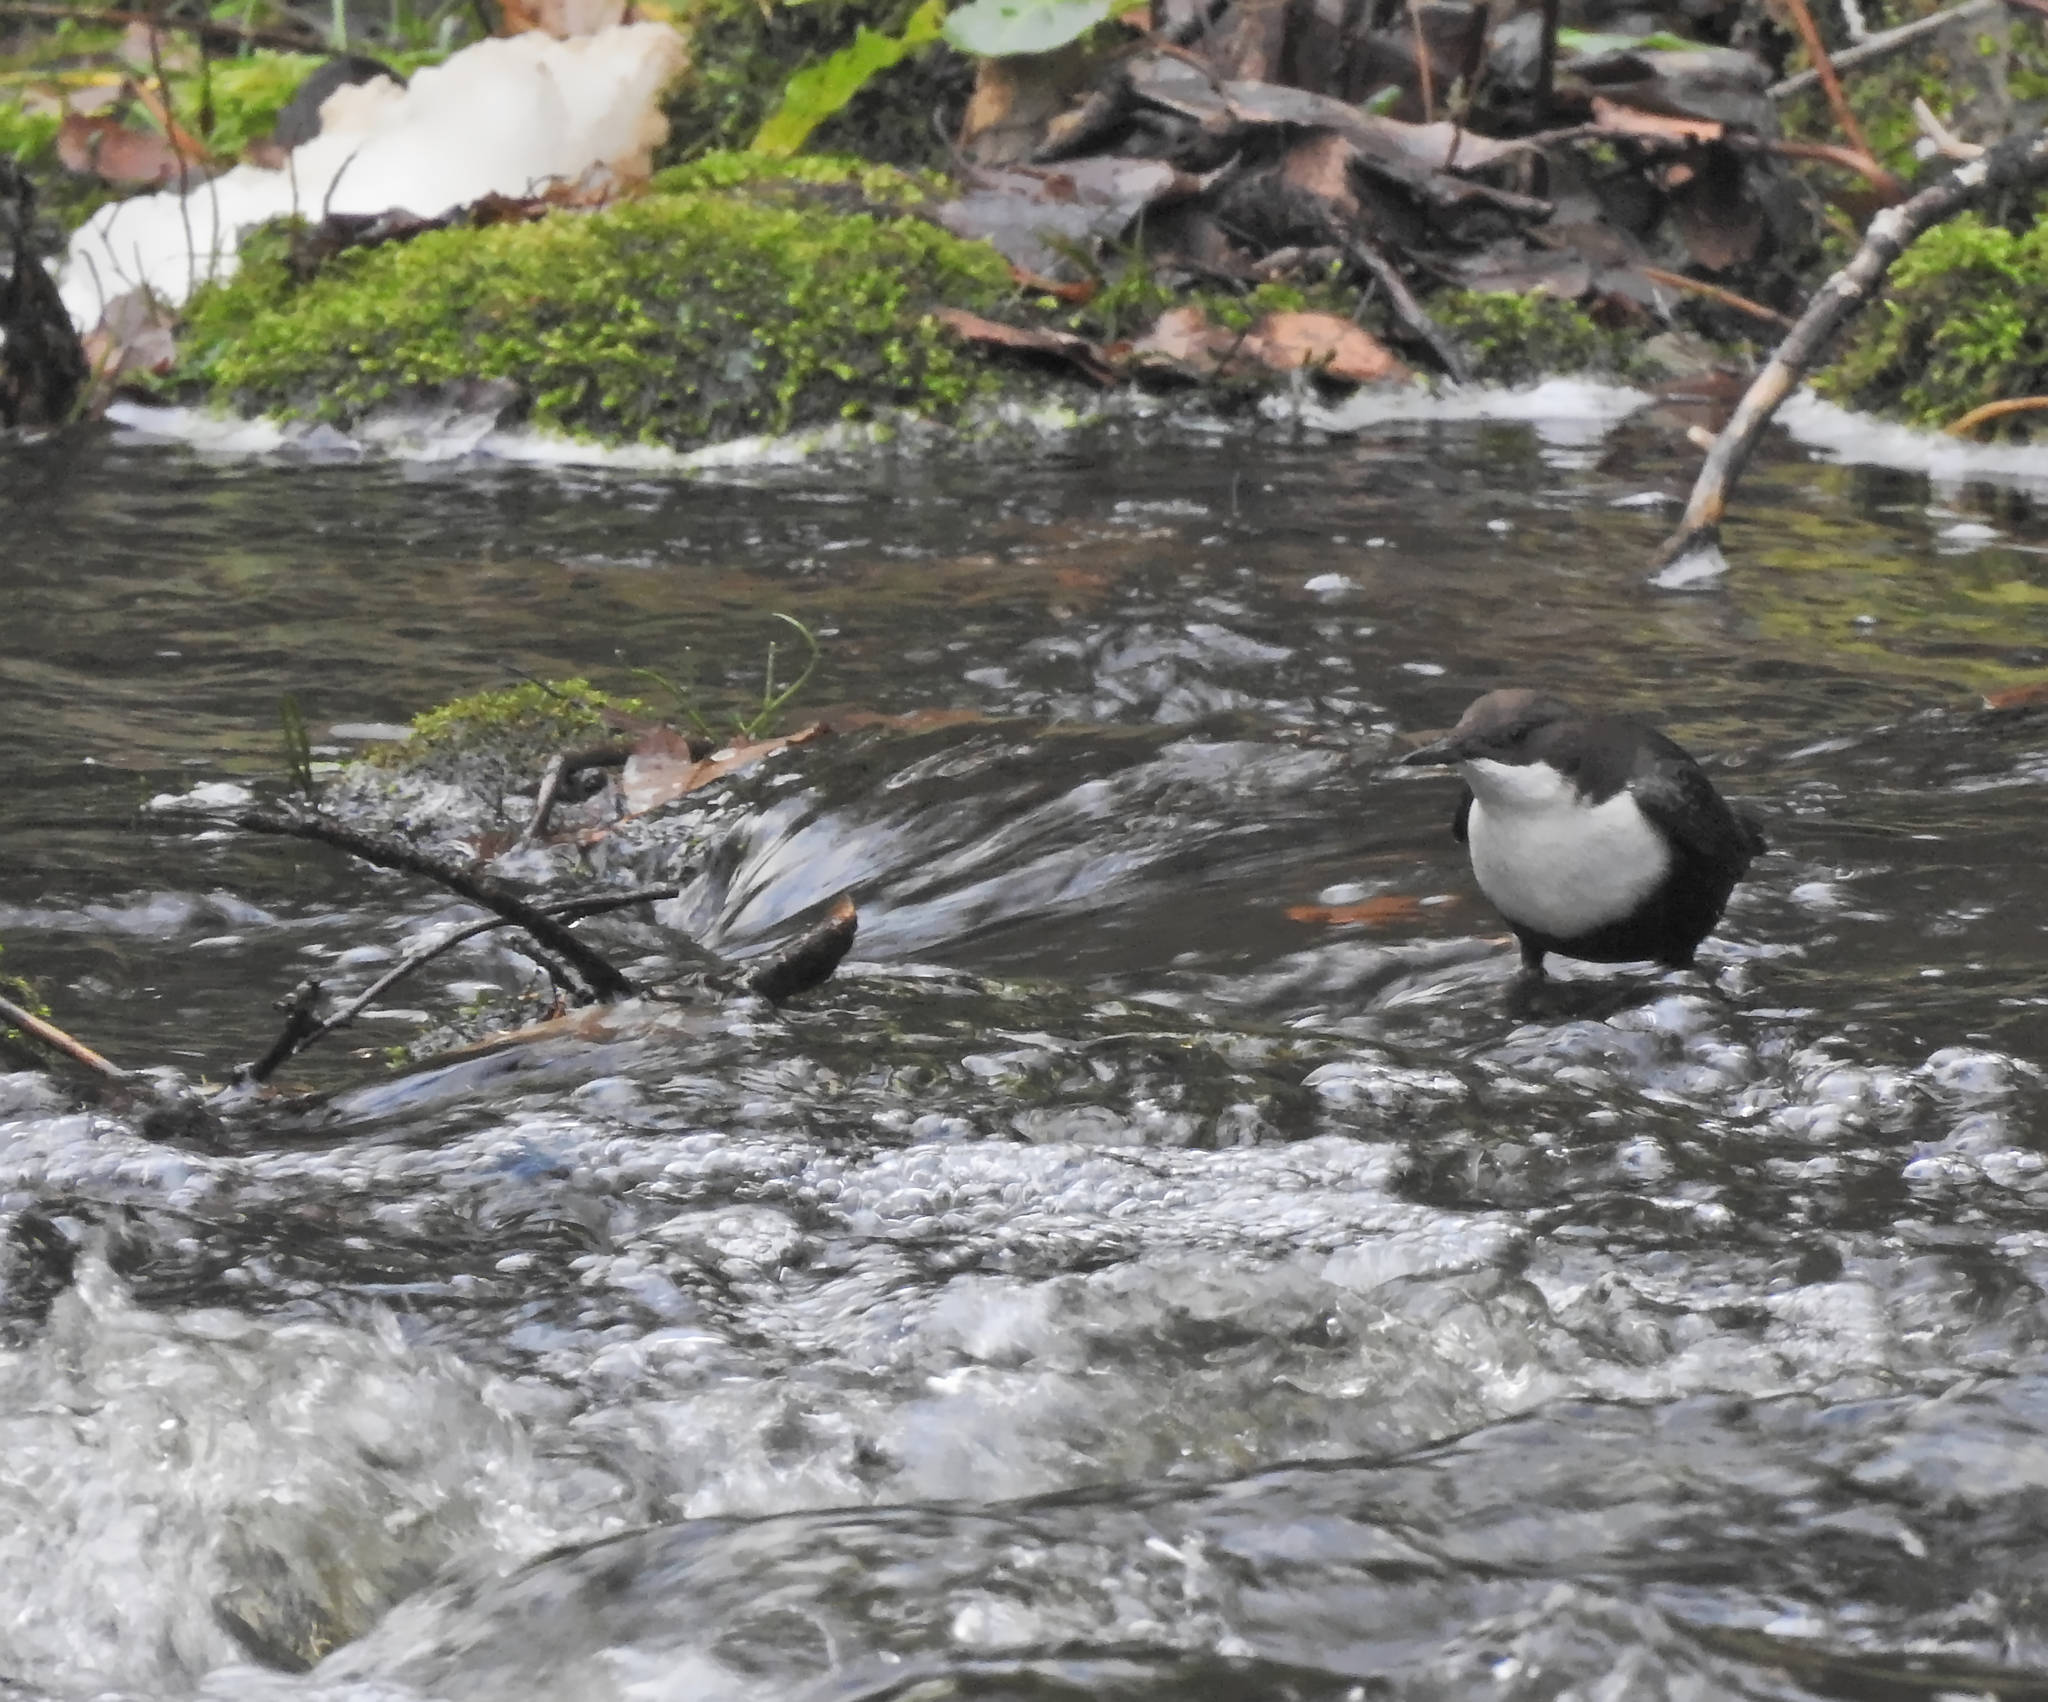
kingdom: Animalia
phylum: Chordata
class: Aves
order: Passeriformes
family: Cinclidae
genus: Cinclus
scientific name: Cinclus cinclus
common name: White-throated dipper
